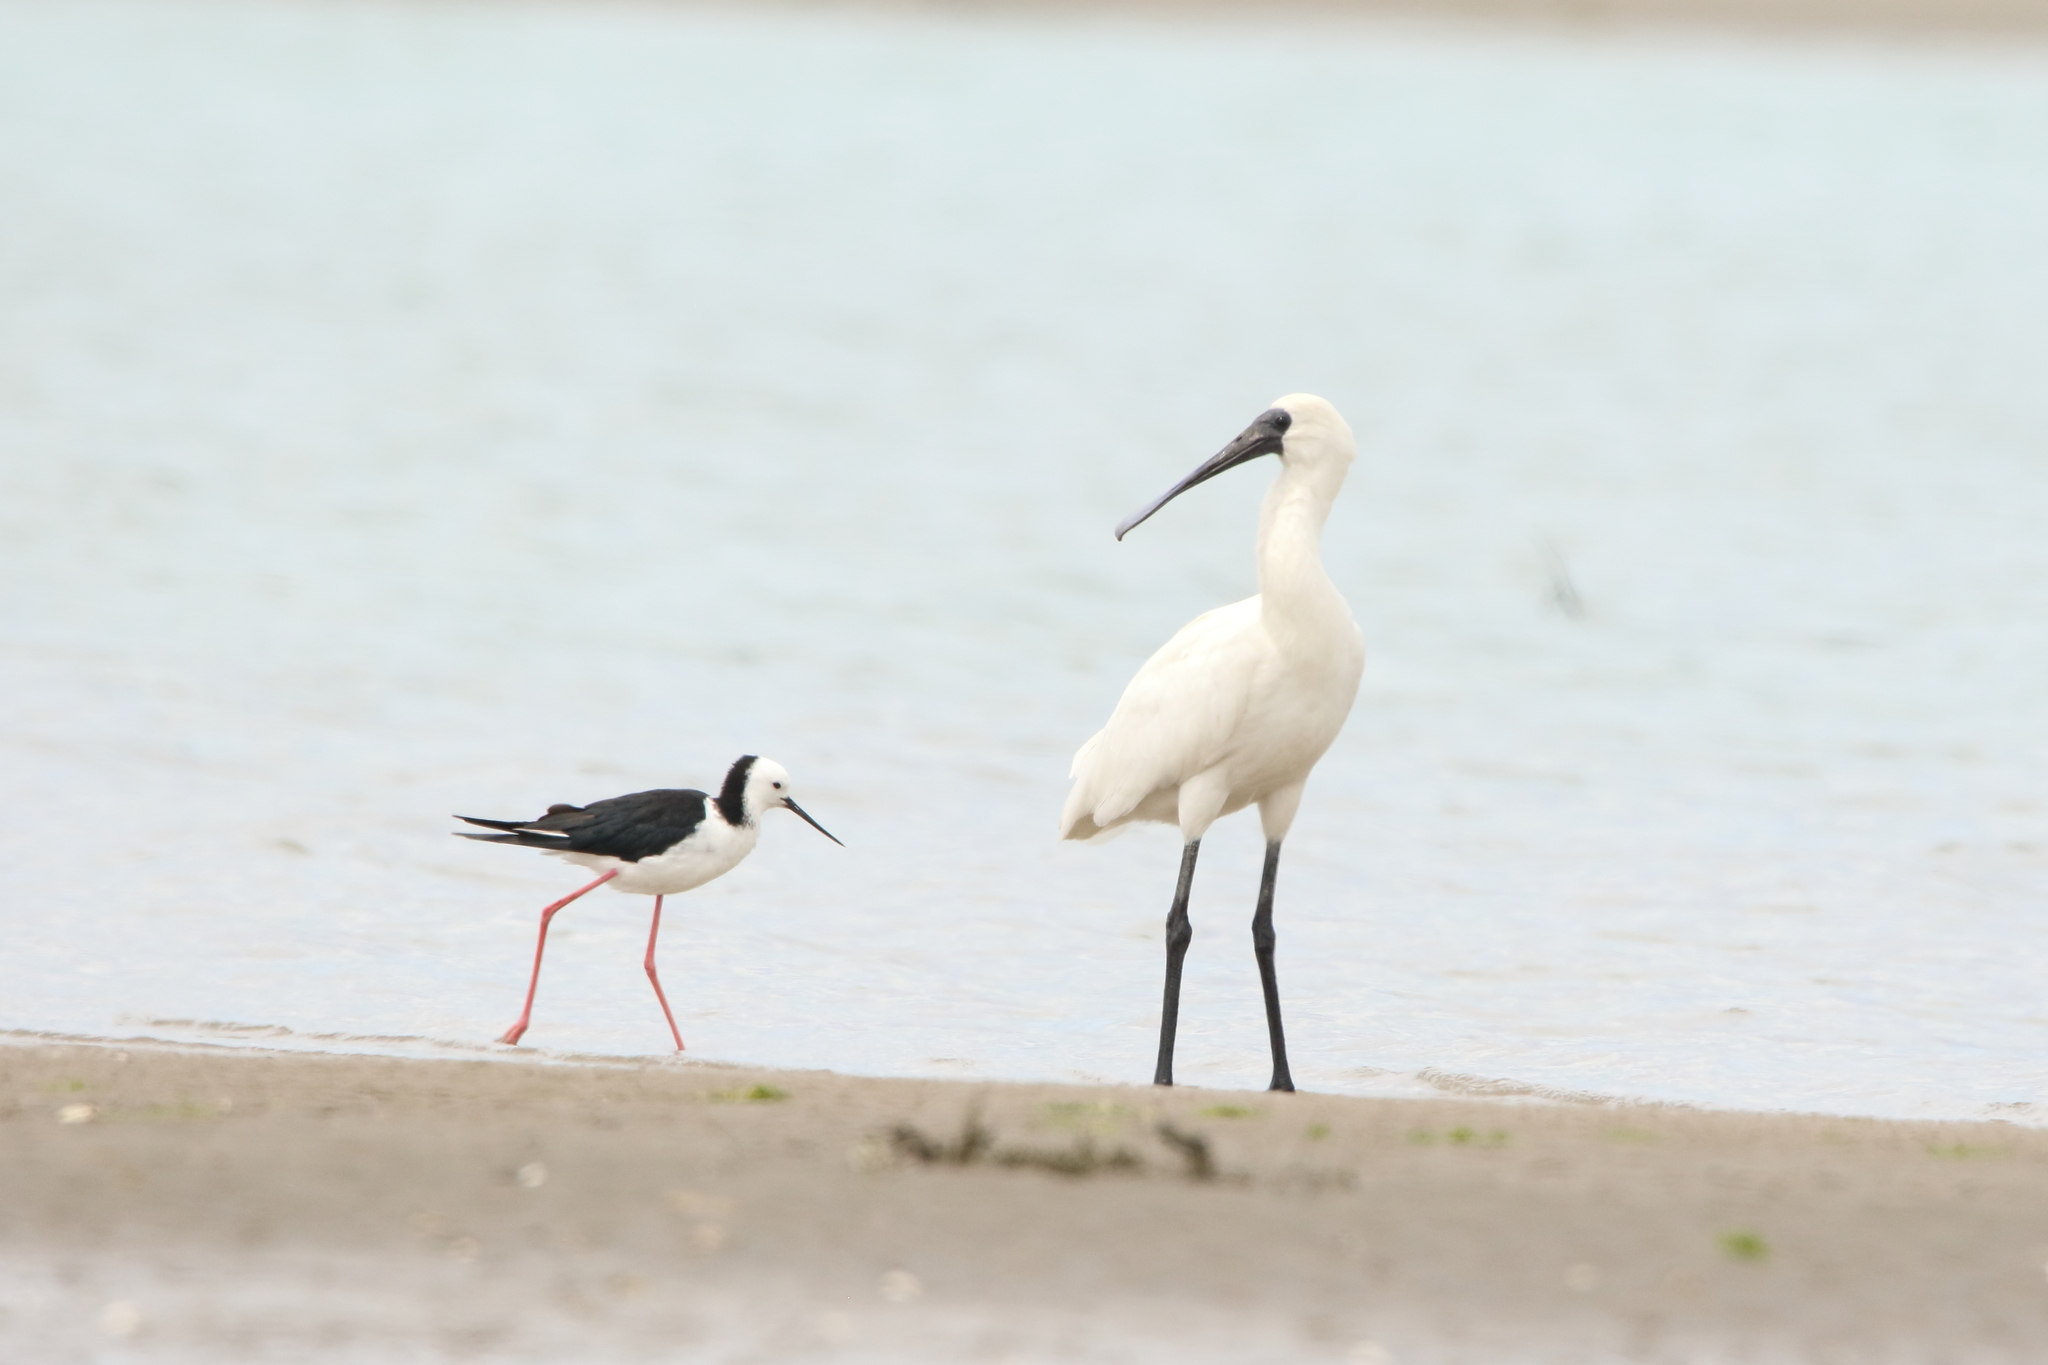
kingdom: Animalia
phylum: Chordata
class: Aves
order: Pelecaniformes
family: Threskiornithidae
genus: Platalea
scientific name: Platalea regia
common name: Royal spoonbill
